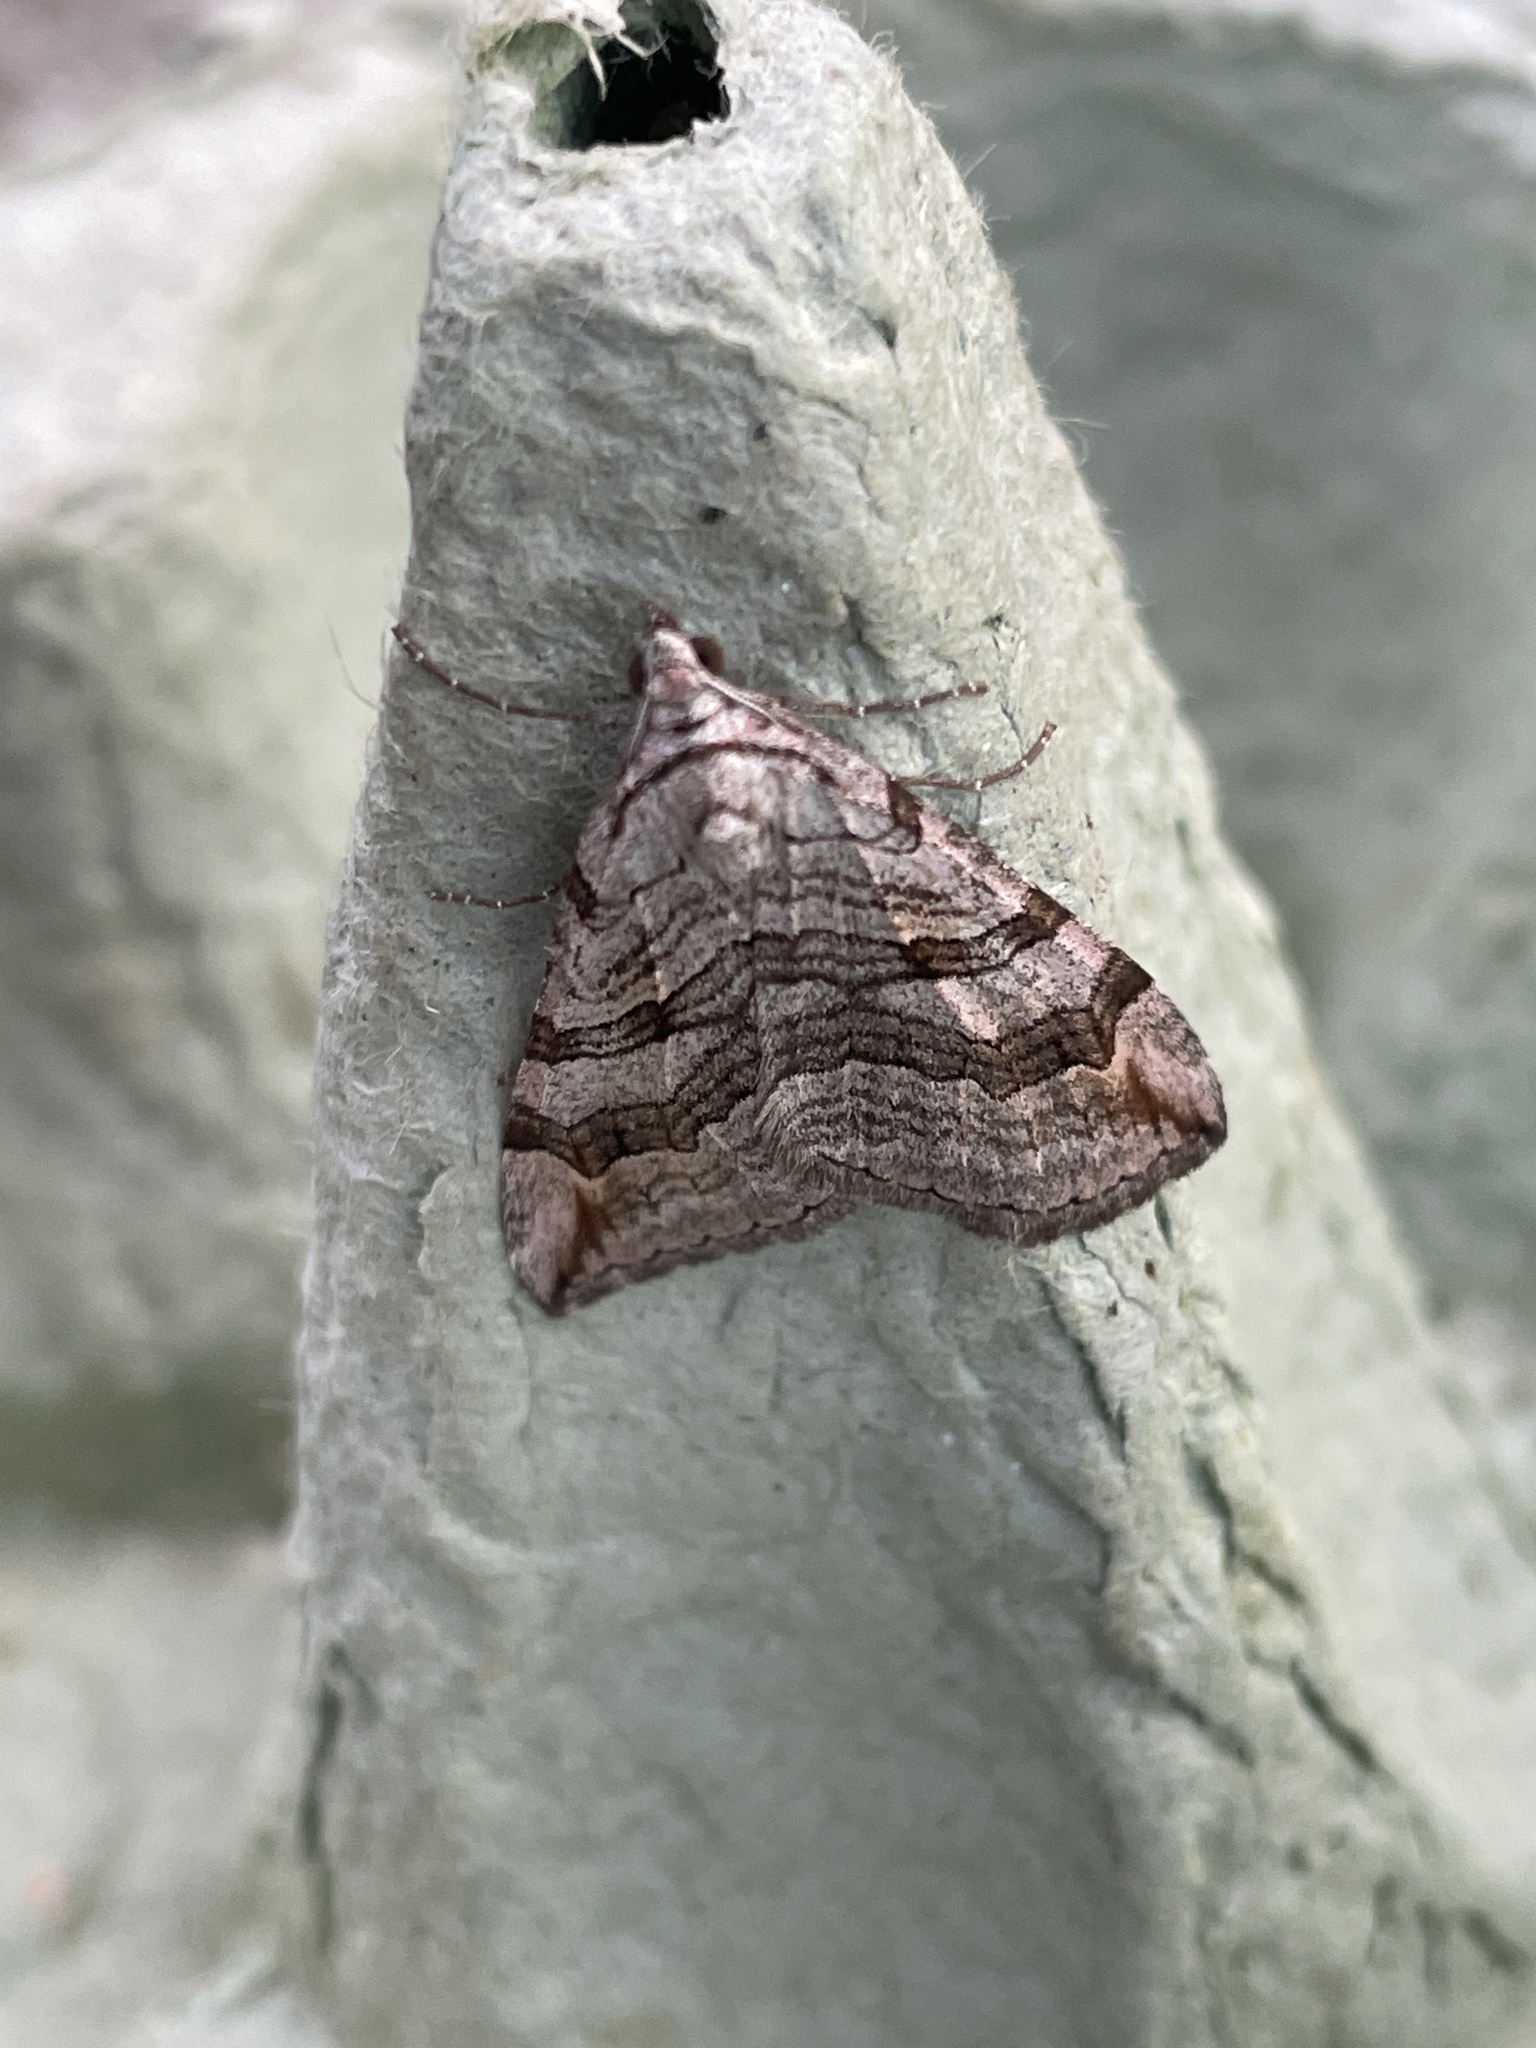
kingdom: Animalia
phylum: Arthropoda
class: Insecta
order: Lepidoptera
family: Geometridae
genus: Aplocera
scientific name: Aplocera plagiata
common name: Treble-bar
